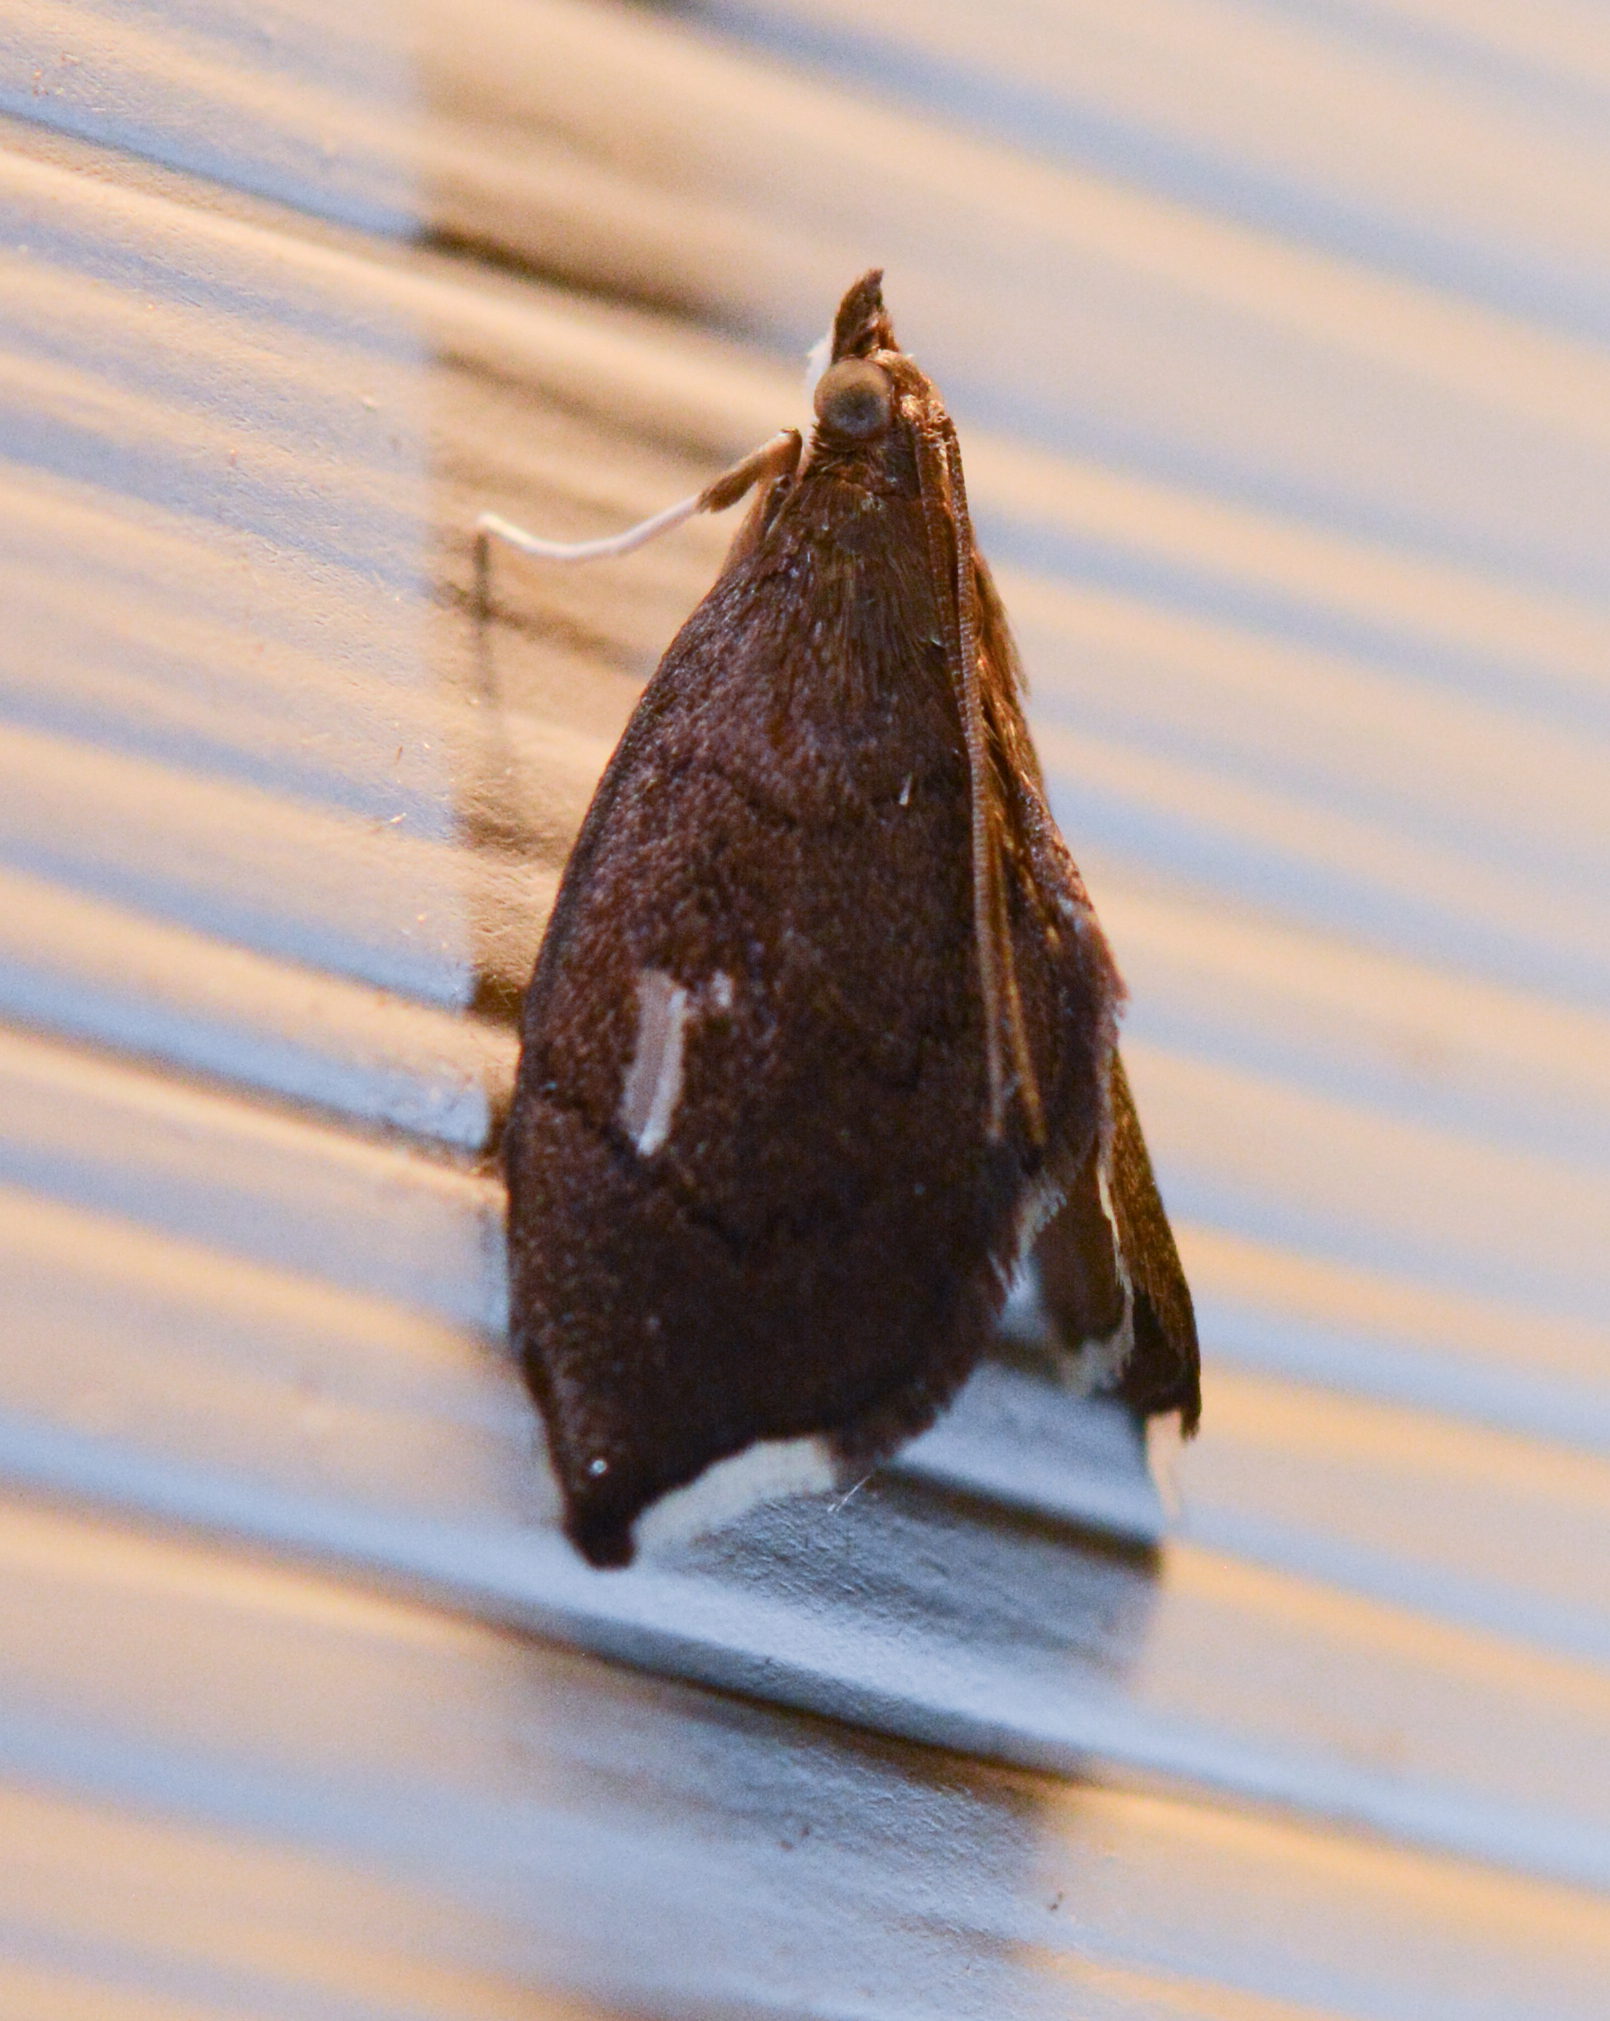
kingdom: Animalia
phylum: Arthropoda
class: Insecta
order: Lepidoptera
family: Crambidae
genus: Perispasta
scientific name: Perispasta caeculalis
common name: Titian peale's moth
